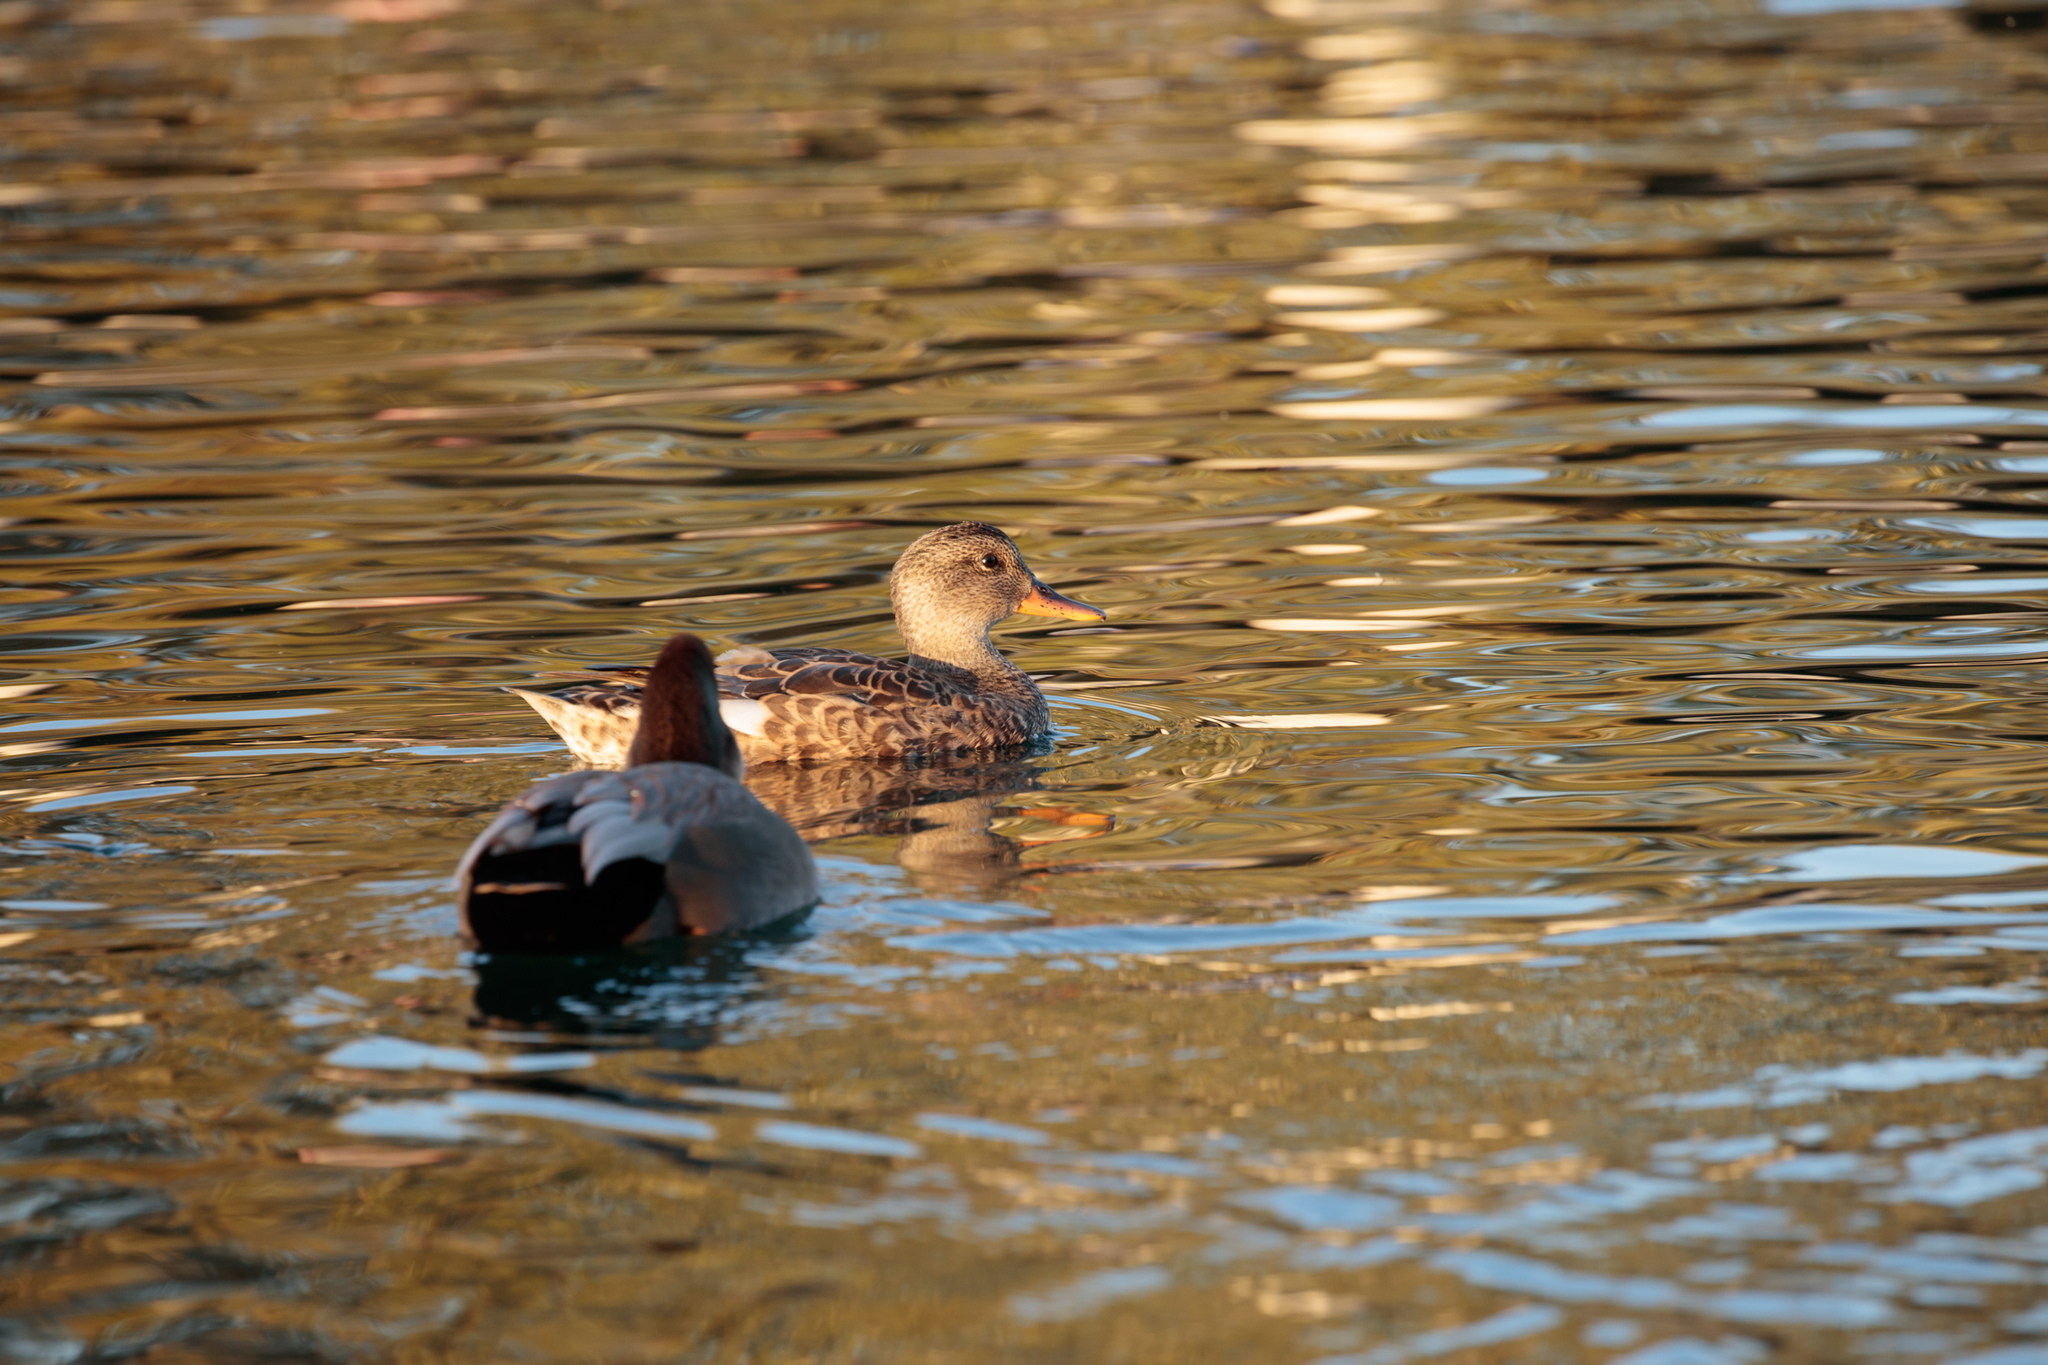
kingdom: Animalia
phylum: Chordata
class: Aves
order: Anseriformes
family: Anatidae
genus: Mareca
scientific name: Mareca strepera
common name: Gadwall
